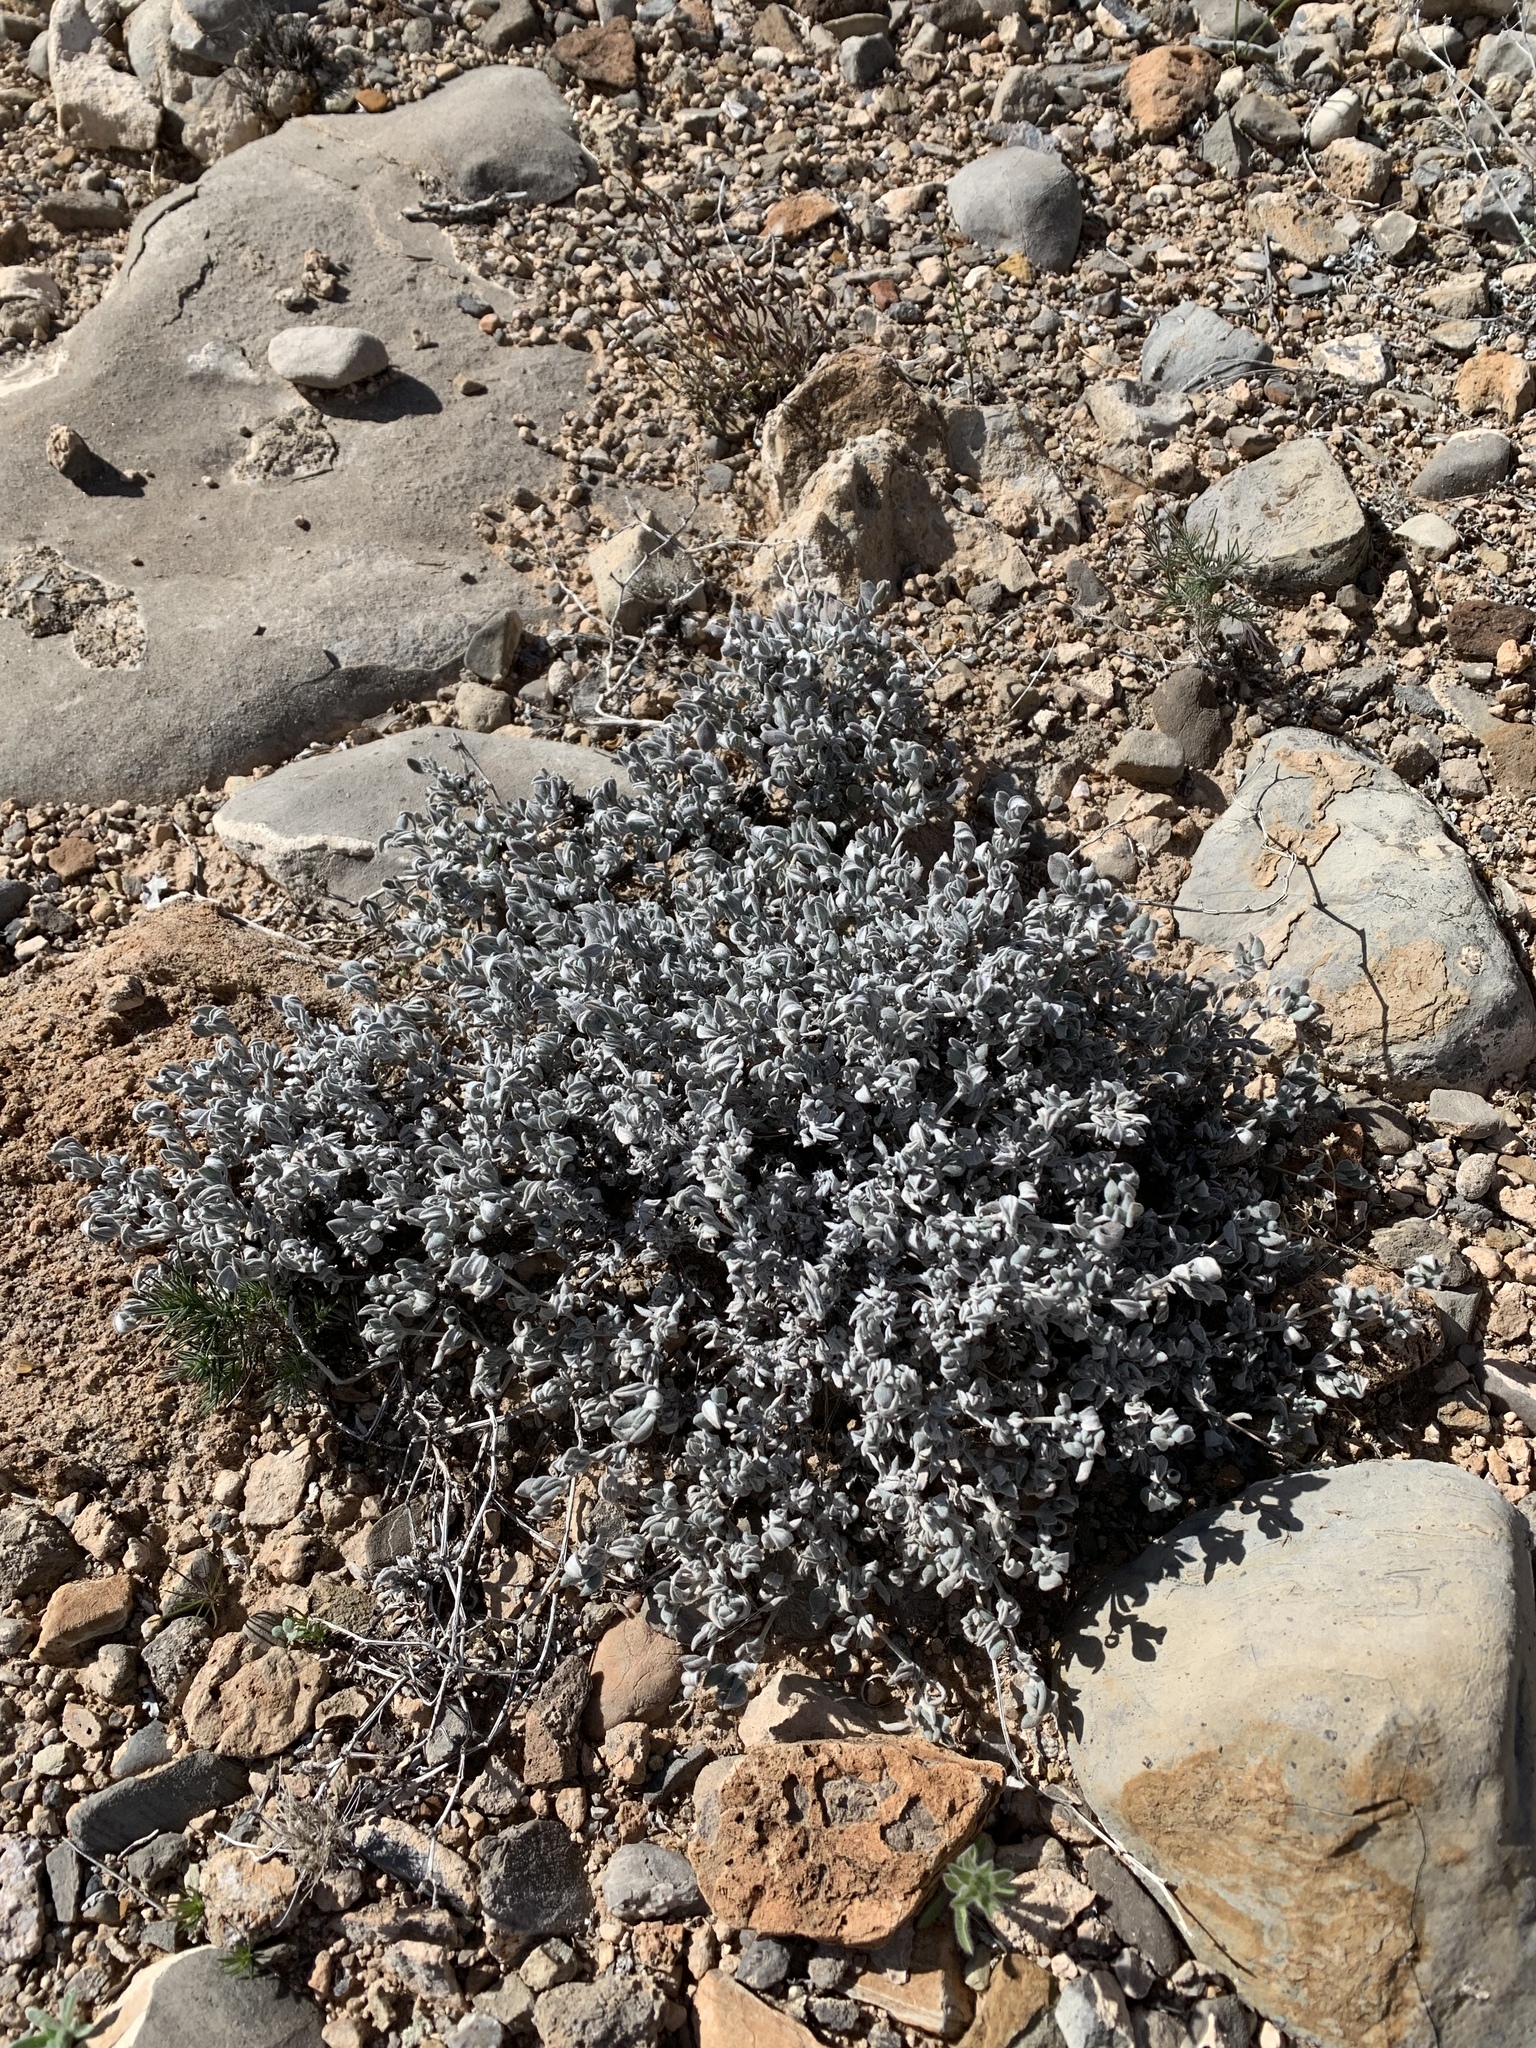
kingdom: Plantae
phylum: Tracheophyta
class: Magnoliopsida
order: Boraginales
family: Ehretiaceae
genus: Tiquilia
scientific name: Tiquilia canescens
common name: Hairy tiquilia
